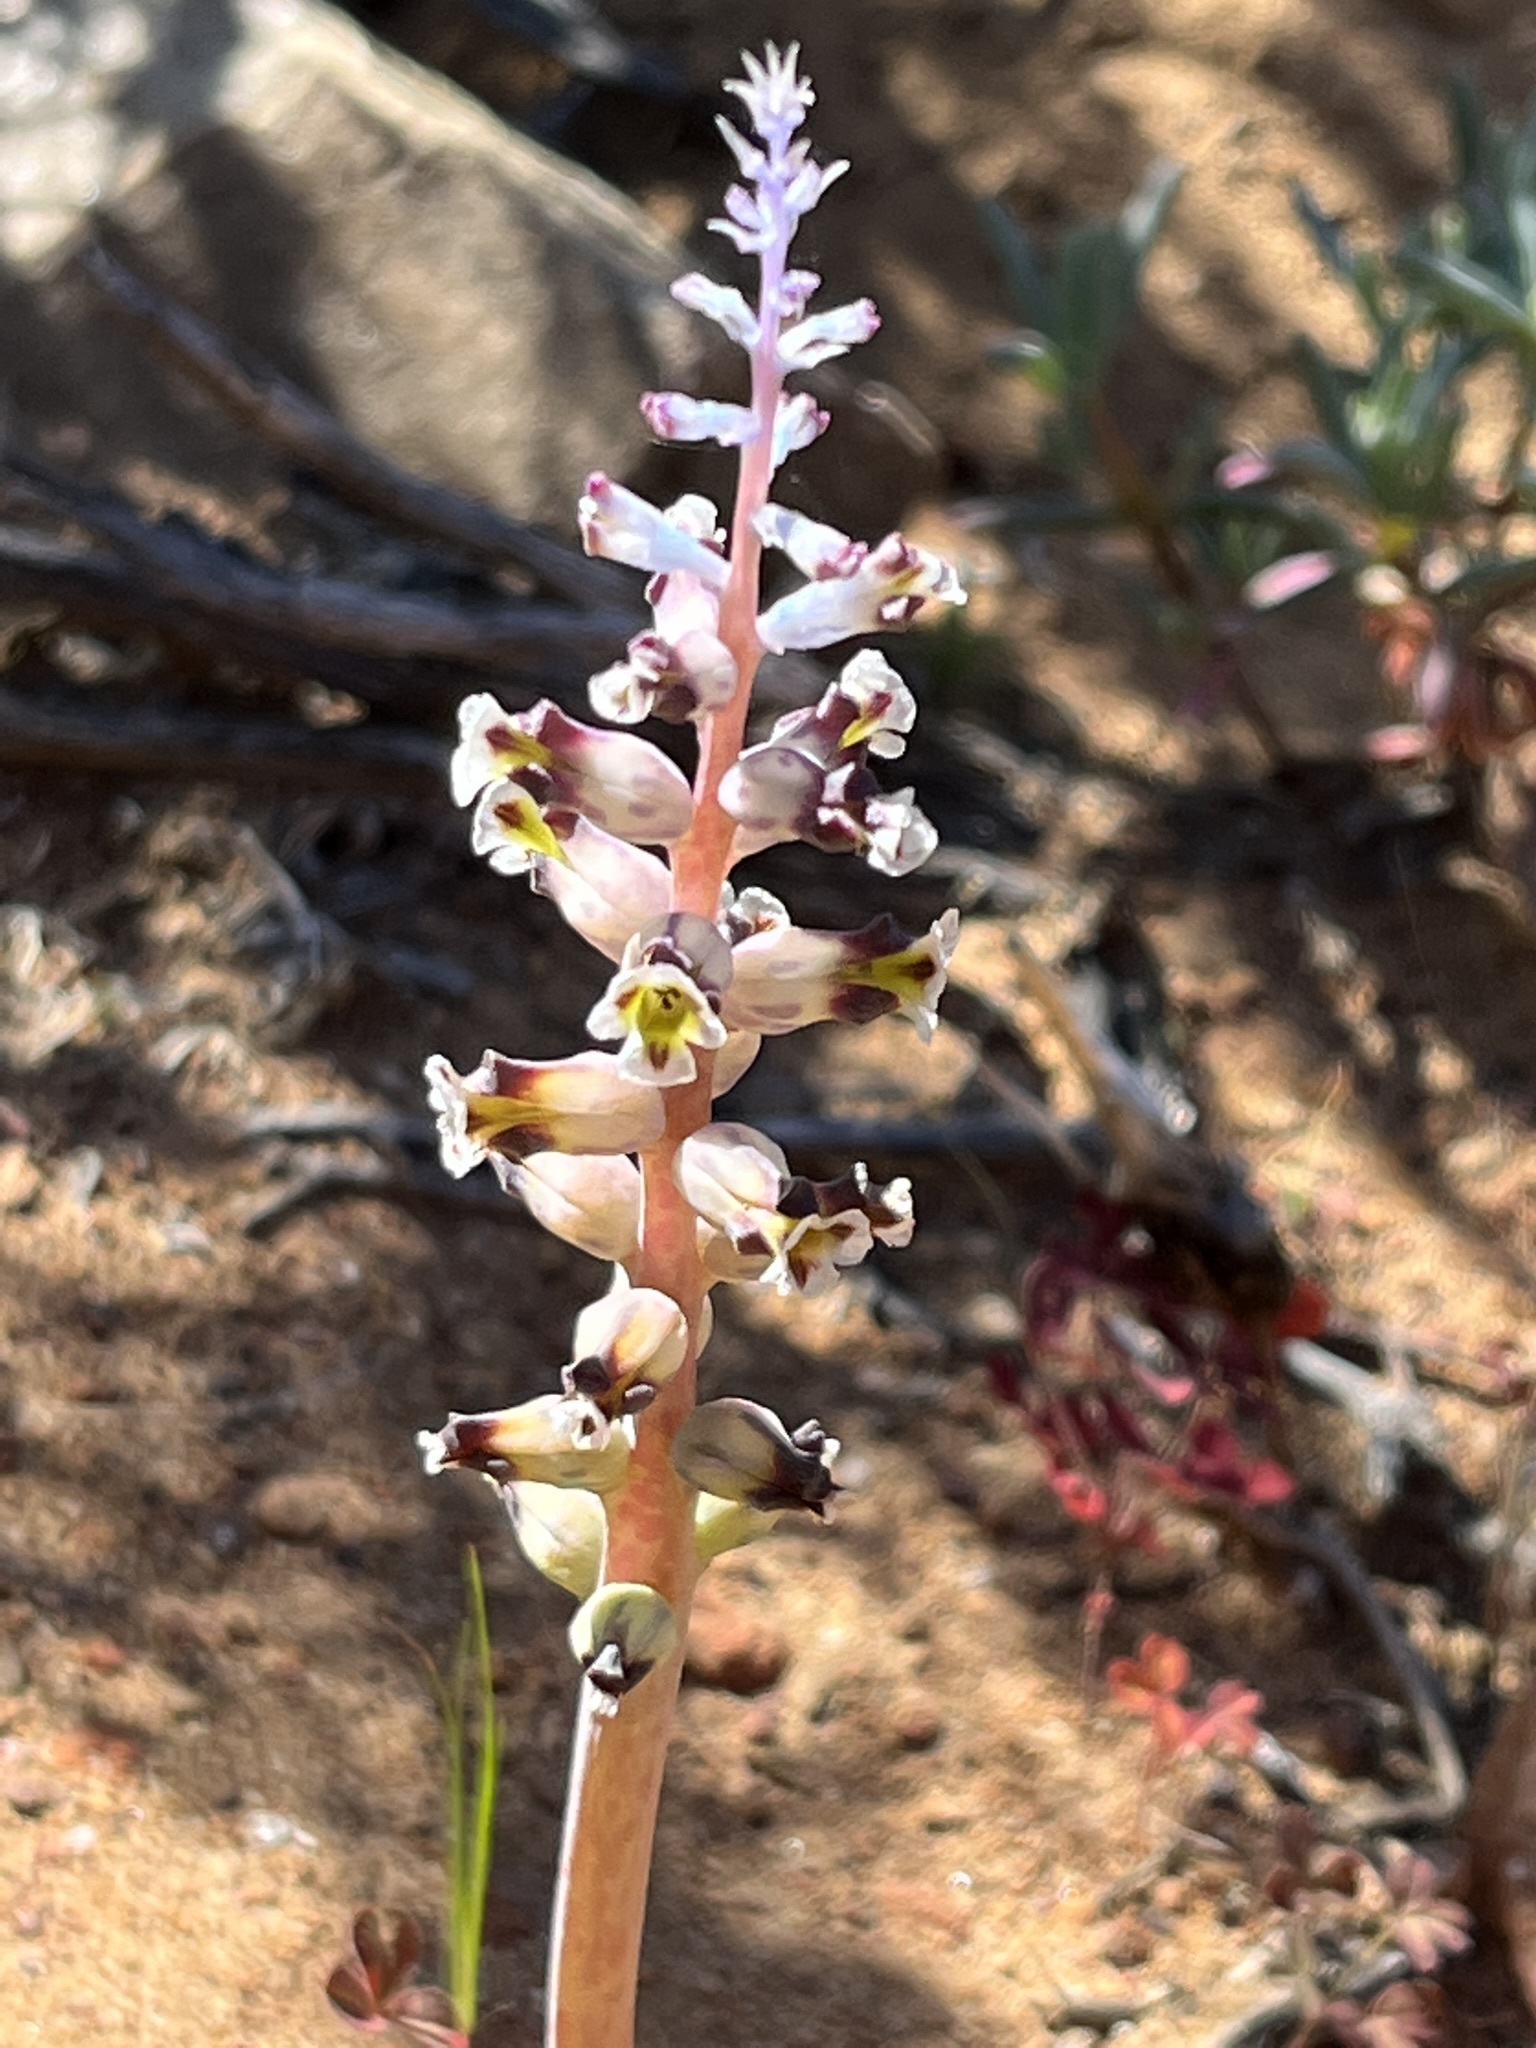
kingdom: Plantae
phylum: Tracheophyta
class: Liliopsida
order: Asparagales
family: Asparagaceae
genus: Lachenalia
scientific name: Lachenalia membranacea
